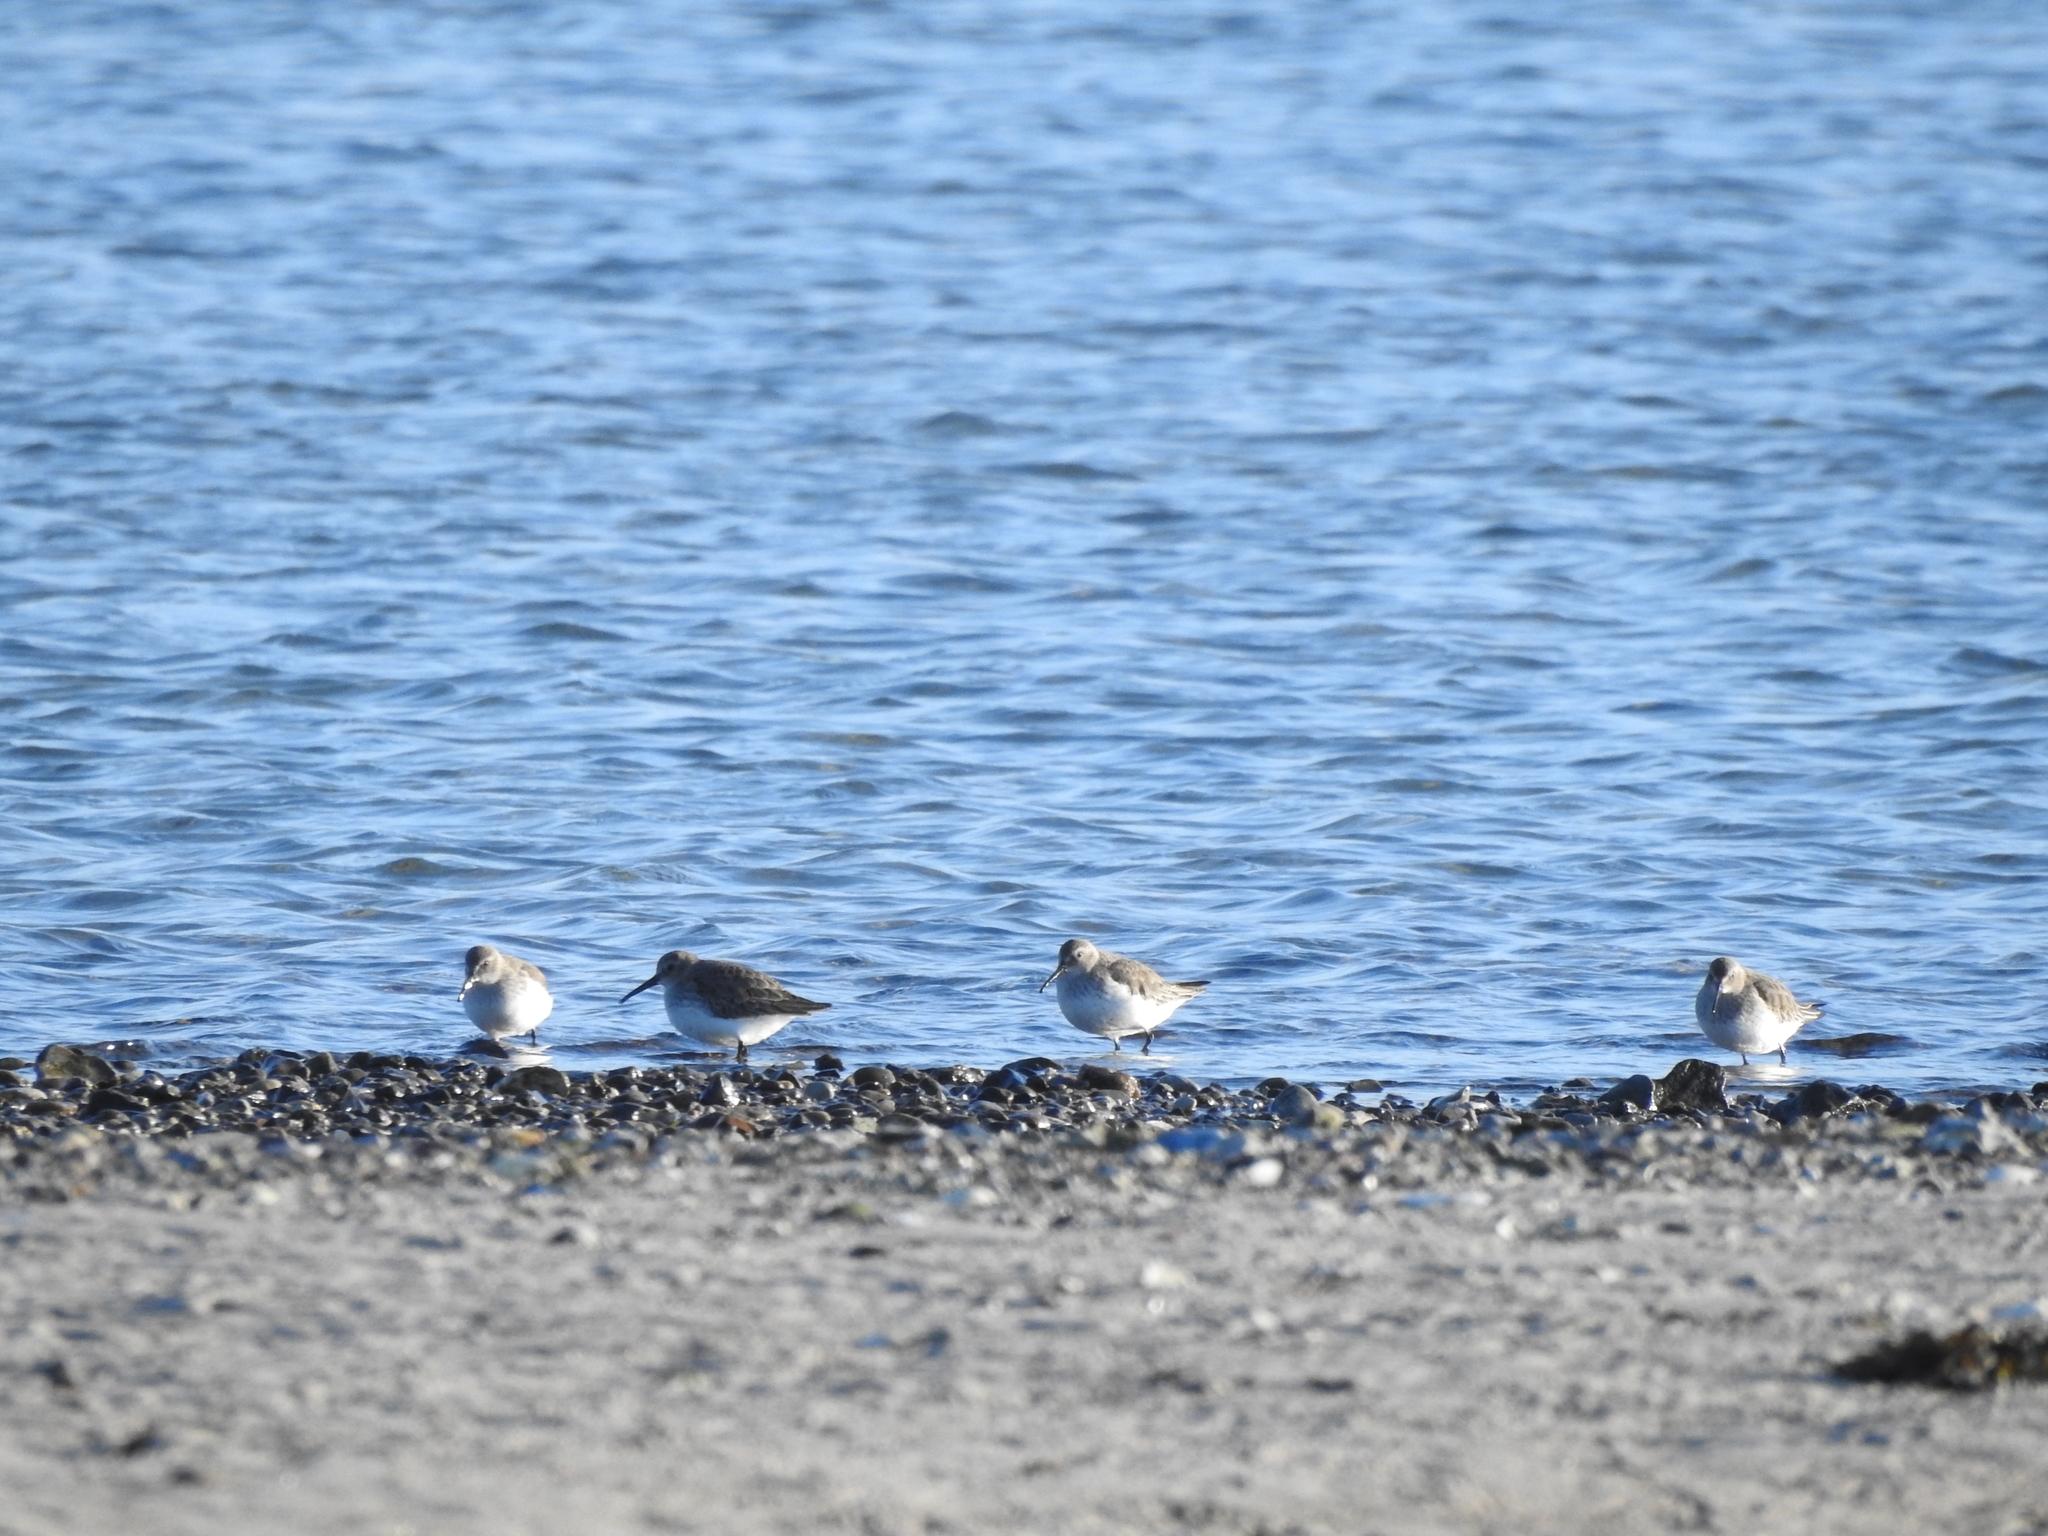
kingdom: Animalia
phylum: Chordata
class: Aves
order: Charadriiformes
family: Scolopacidae
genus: Calidris
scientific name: Calidris alpina
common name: Dunlin
